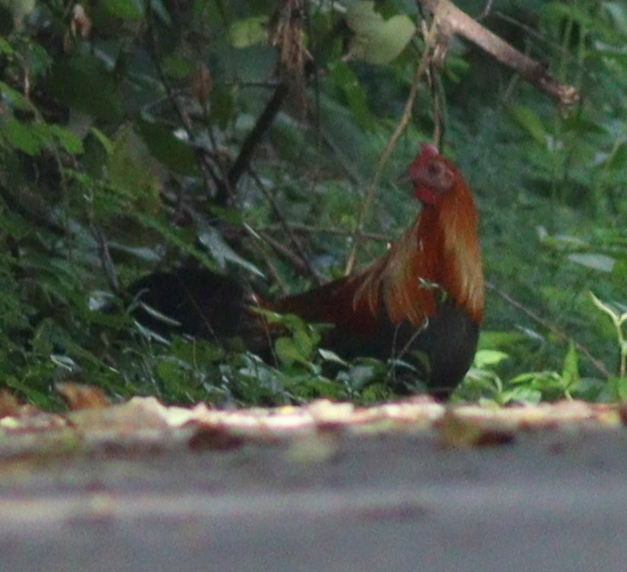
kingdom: Animalia
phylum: Chordata
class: Aves
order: Galliformes
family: Phasianidae
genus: Gallus
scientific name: Gallus gallus
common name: Red junglefowl
